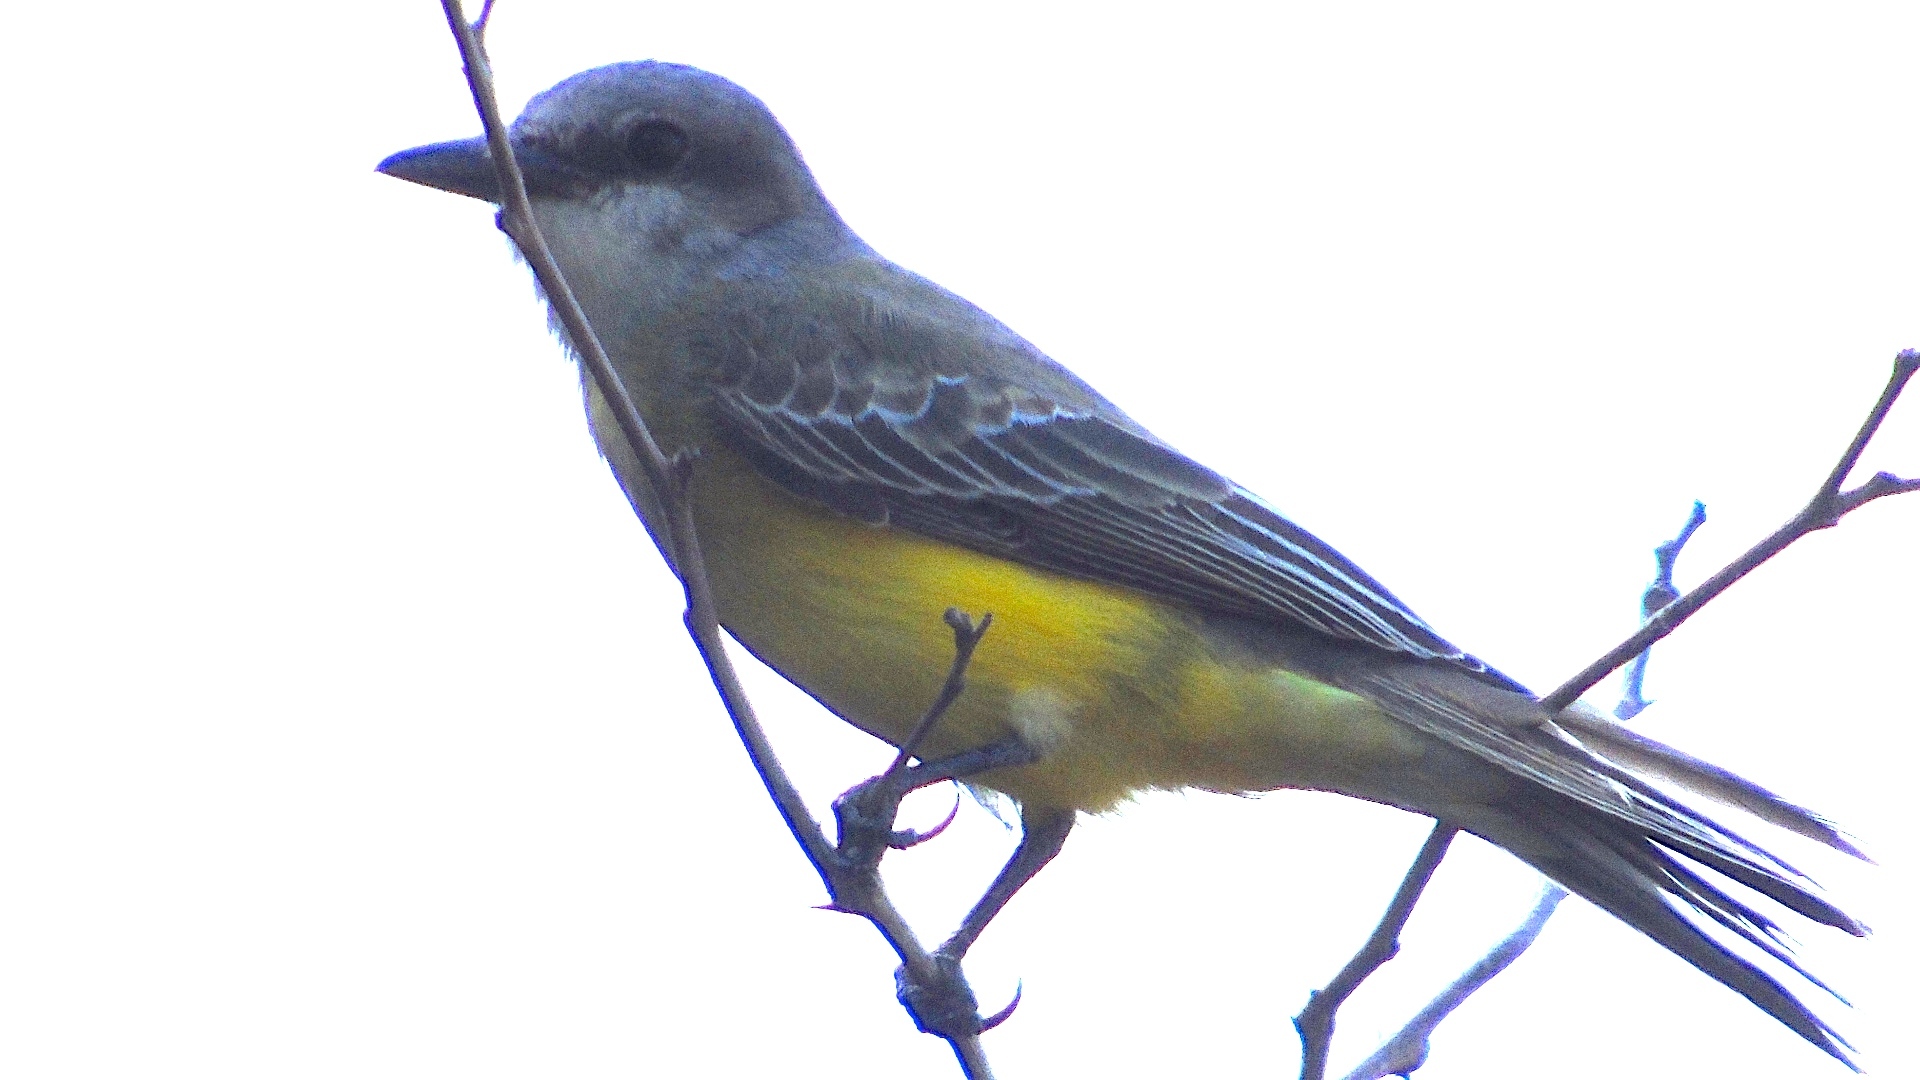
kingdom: Animalia
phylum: Chordata
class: Aves
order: Passeriformes
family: Tyrannidae
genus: Tyrannus
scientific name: Tyrannus melancholicus
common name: Tropical kingbird
